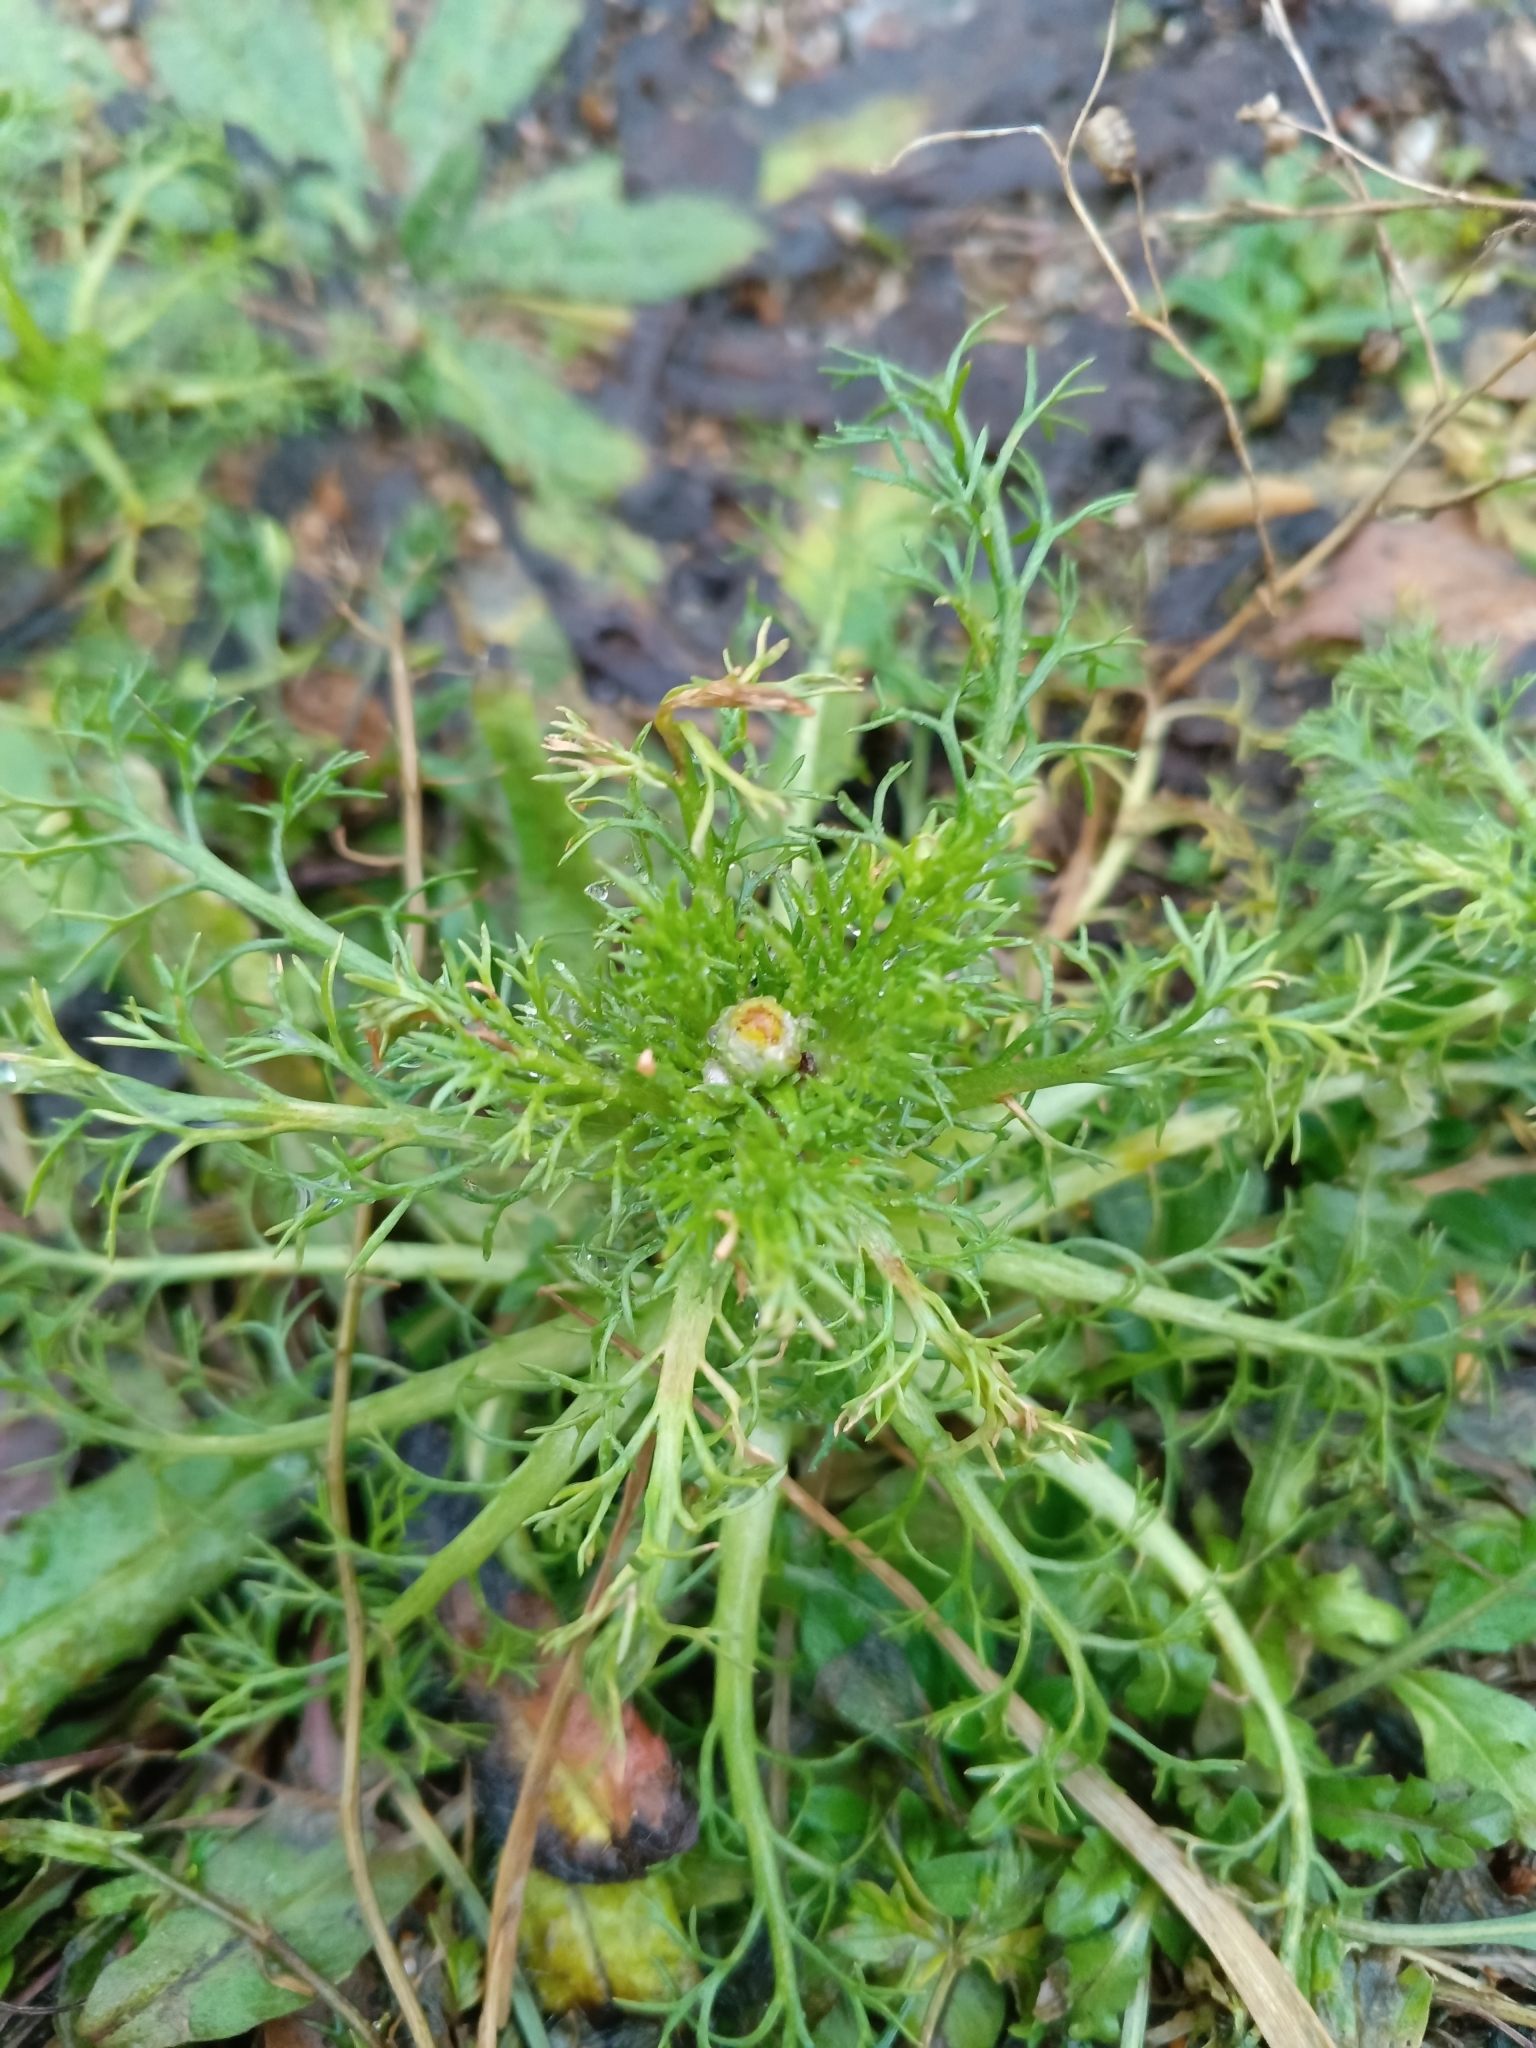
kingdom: Plantae
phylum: Tracheophyta
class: Magnoliopsida
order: Asterales
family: Asteraceae
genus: Matricaria
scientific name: Matricaria discoidea
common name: Disc mayweed
